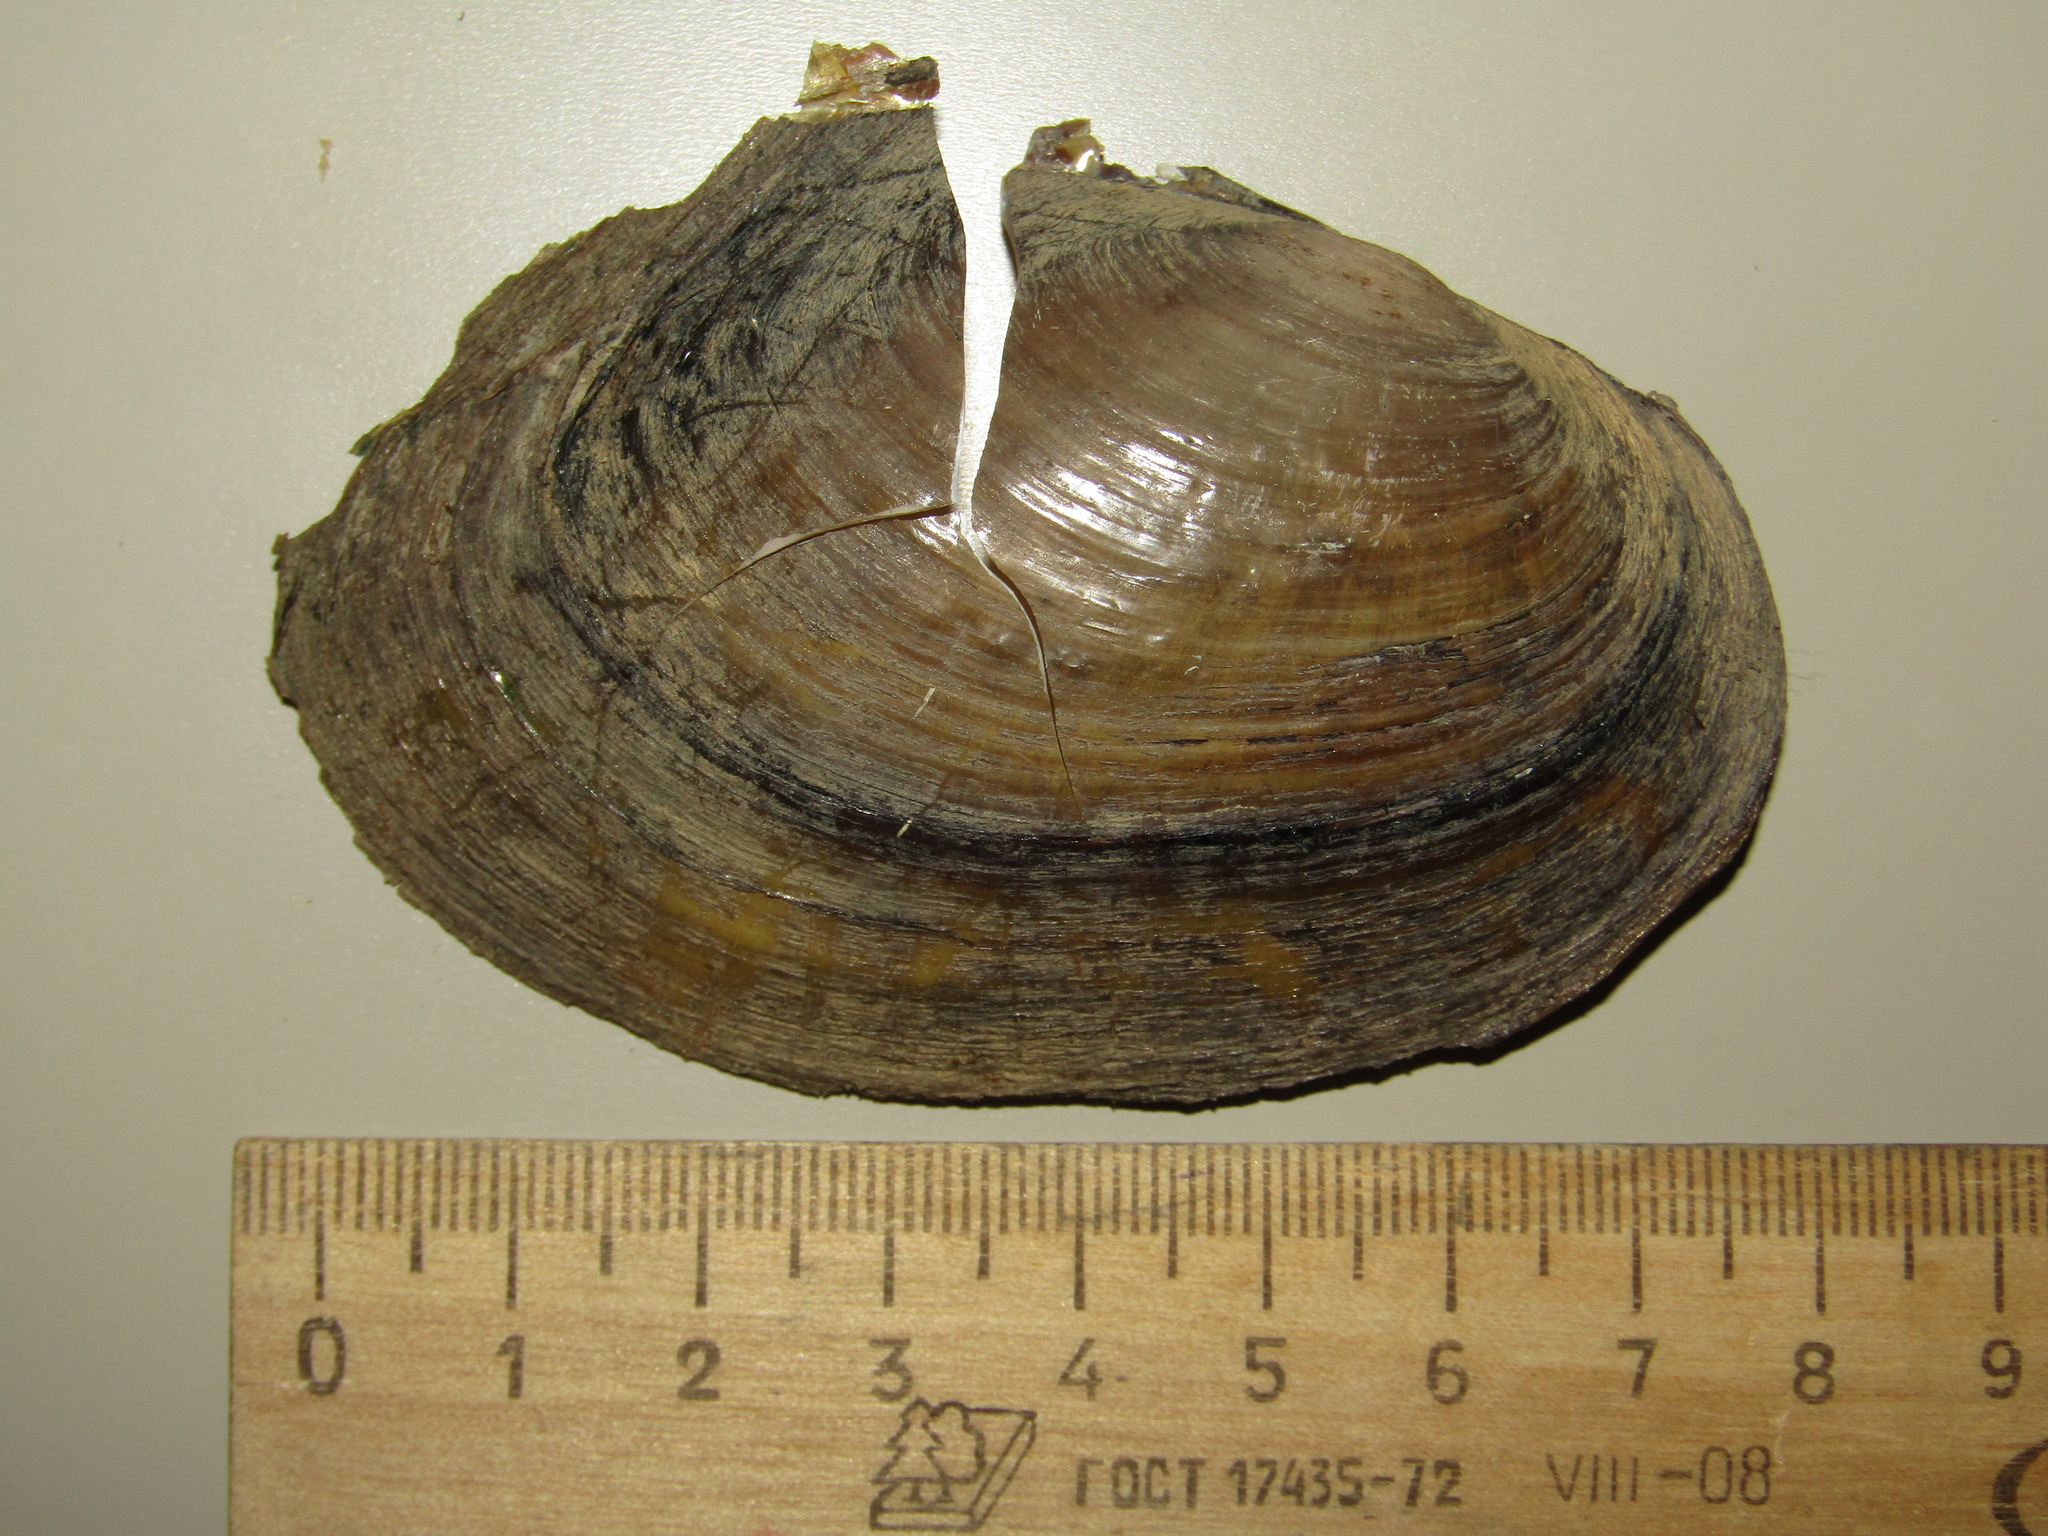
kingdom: Animalia
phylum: Mollusca
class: Bivalvia
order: Unionida
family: Unionidae
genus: Anodonta
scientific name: Anodonta anatina
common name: Duck mussel
